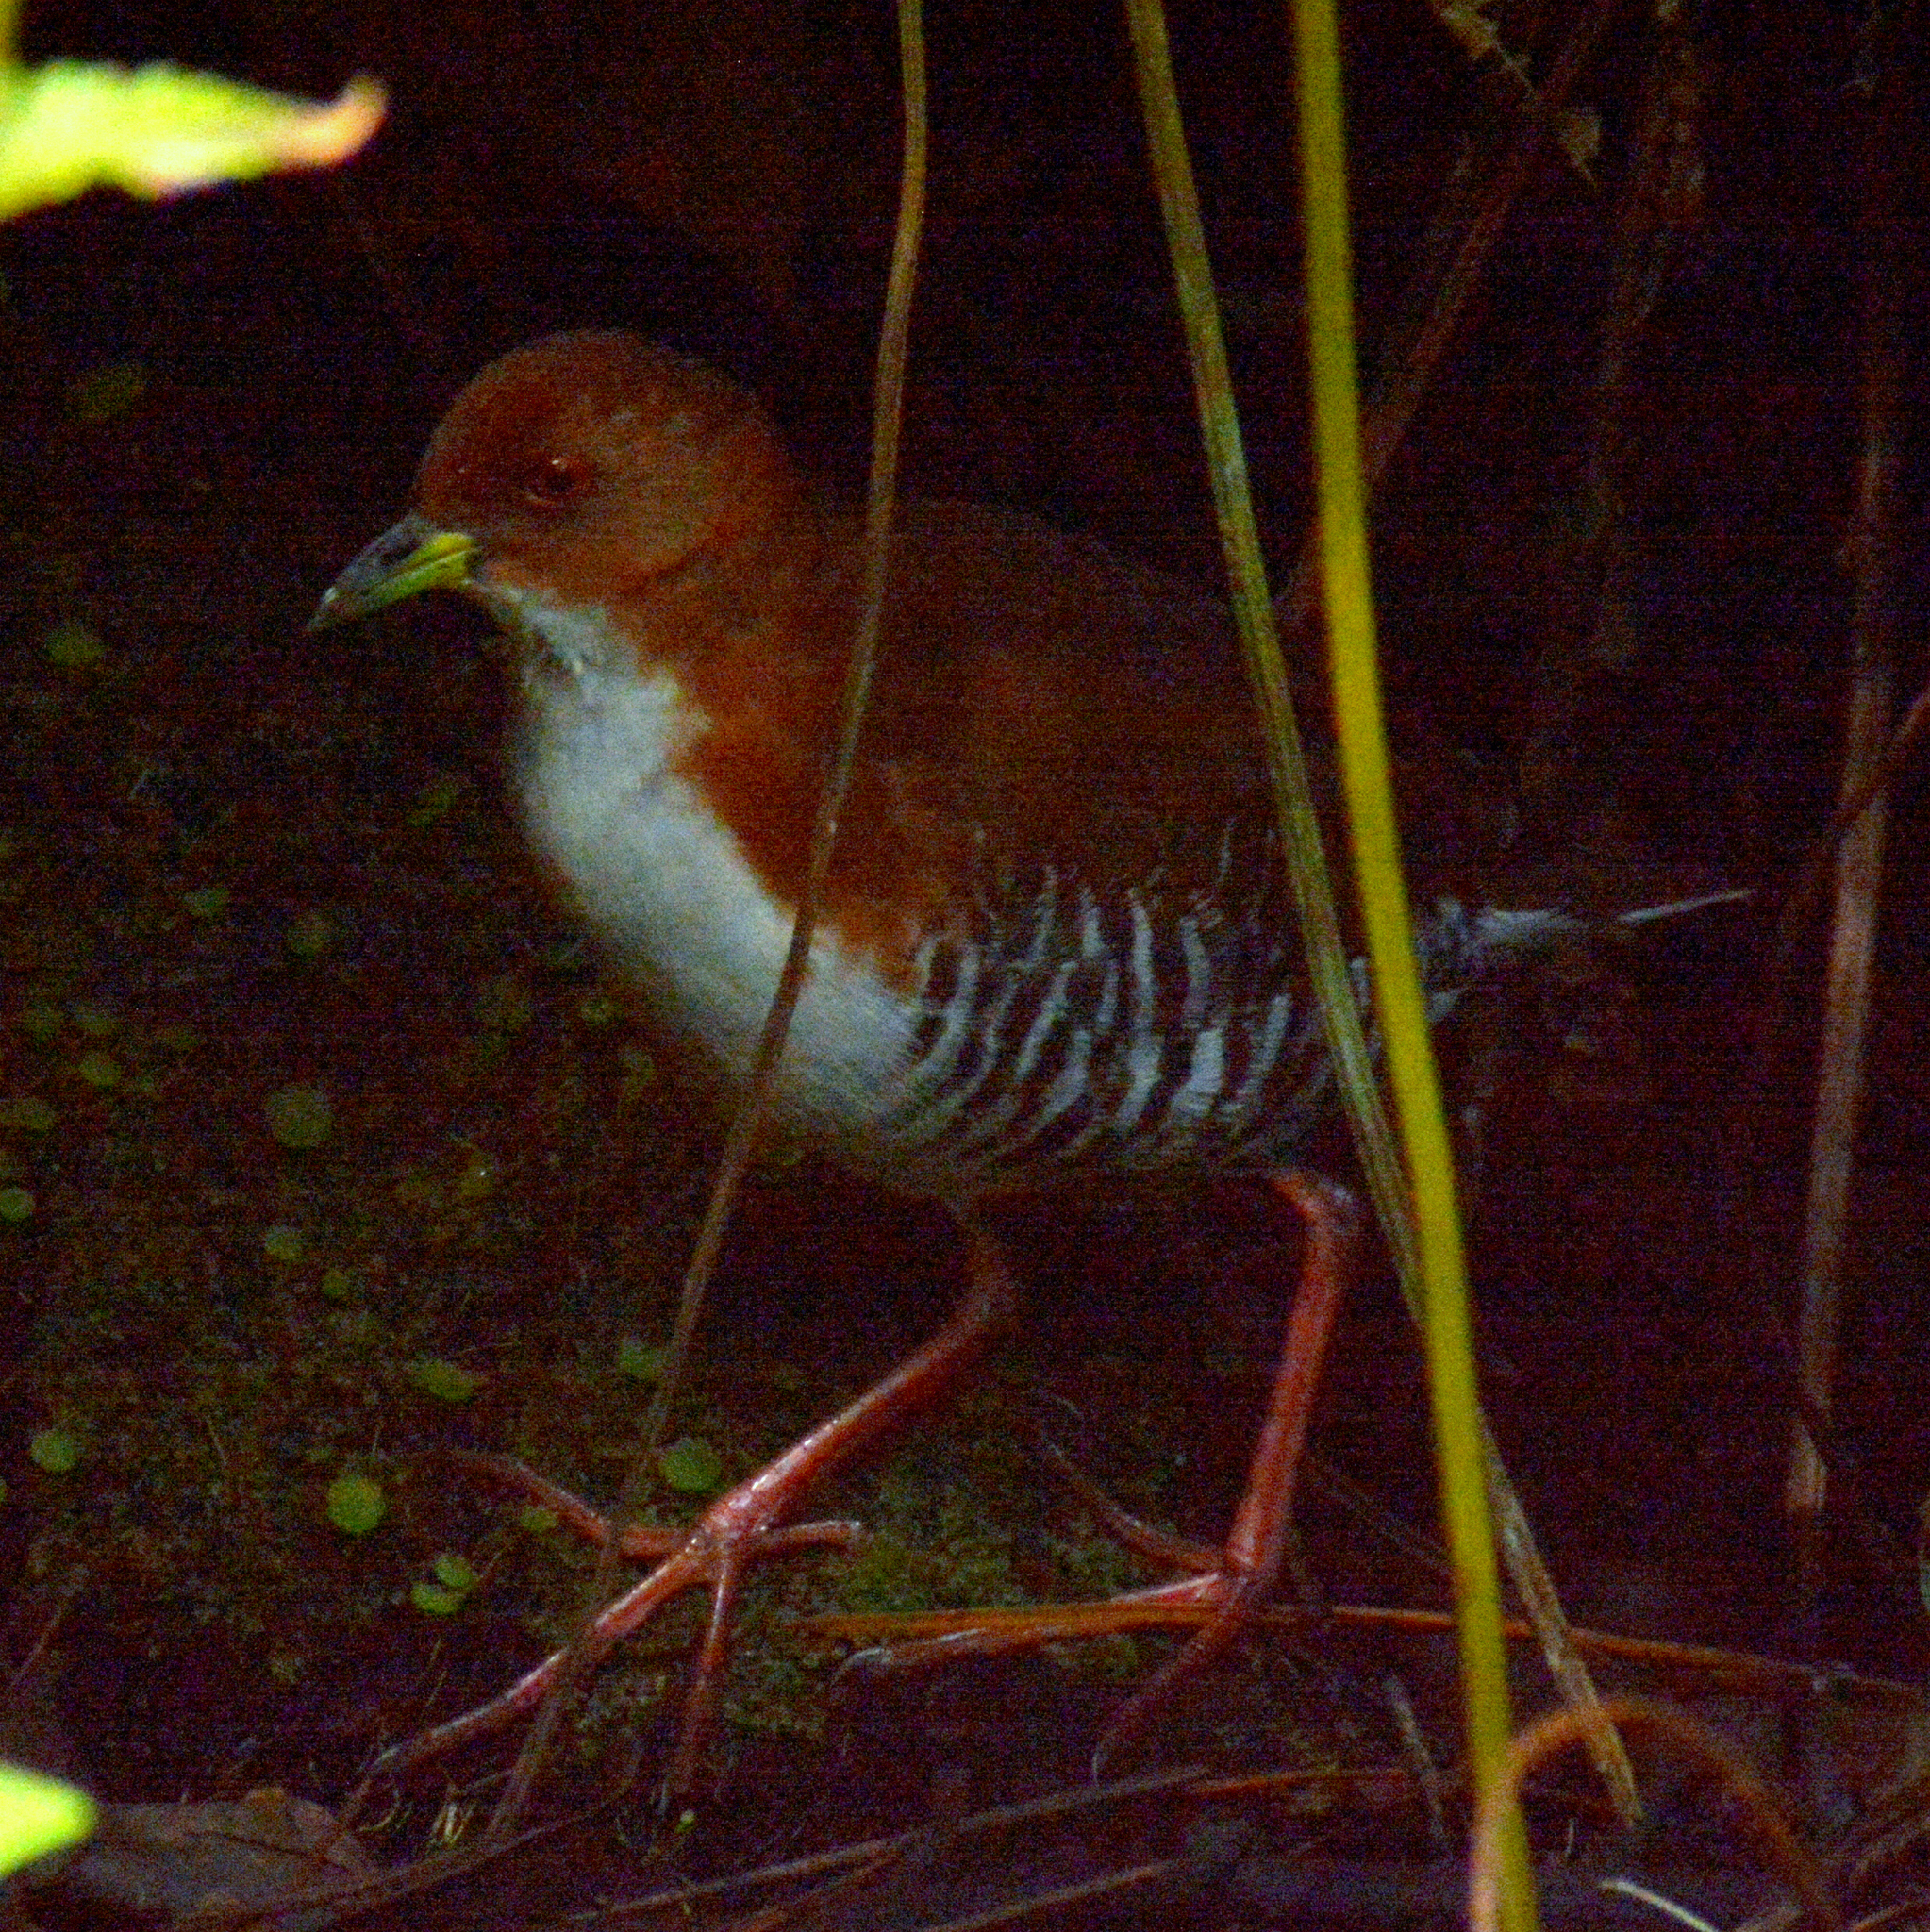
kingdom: Animalia
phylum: Chordata
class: Aves
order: Gruiformes
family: Rallidae
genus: Laterallus
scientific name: Laterallus leucopyrrhus
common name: Red-and-white crake
